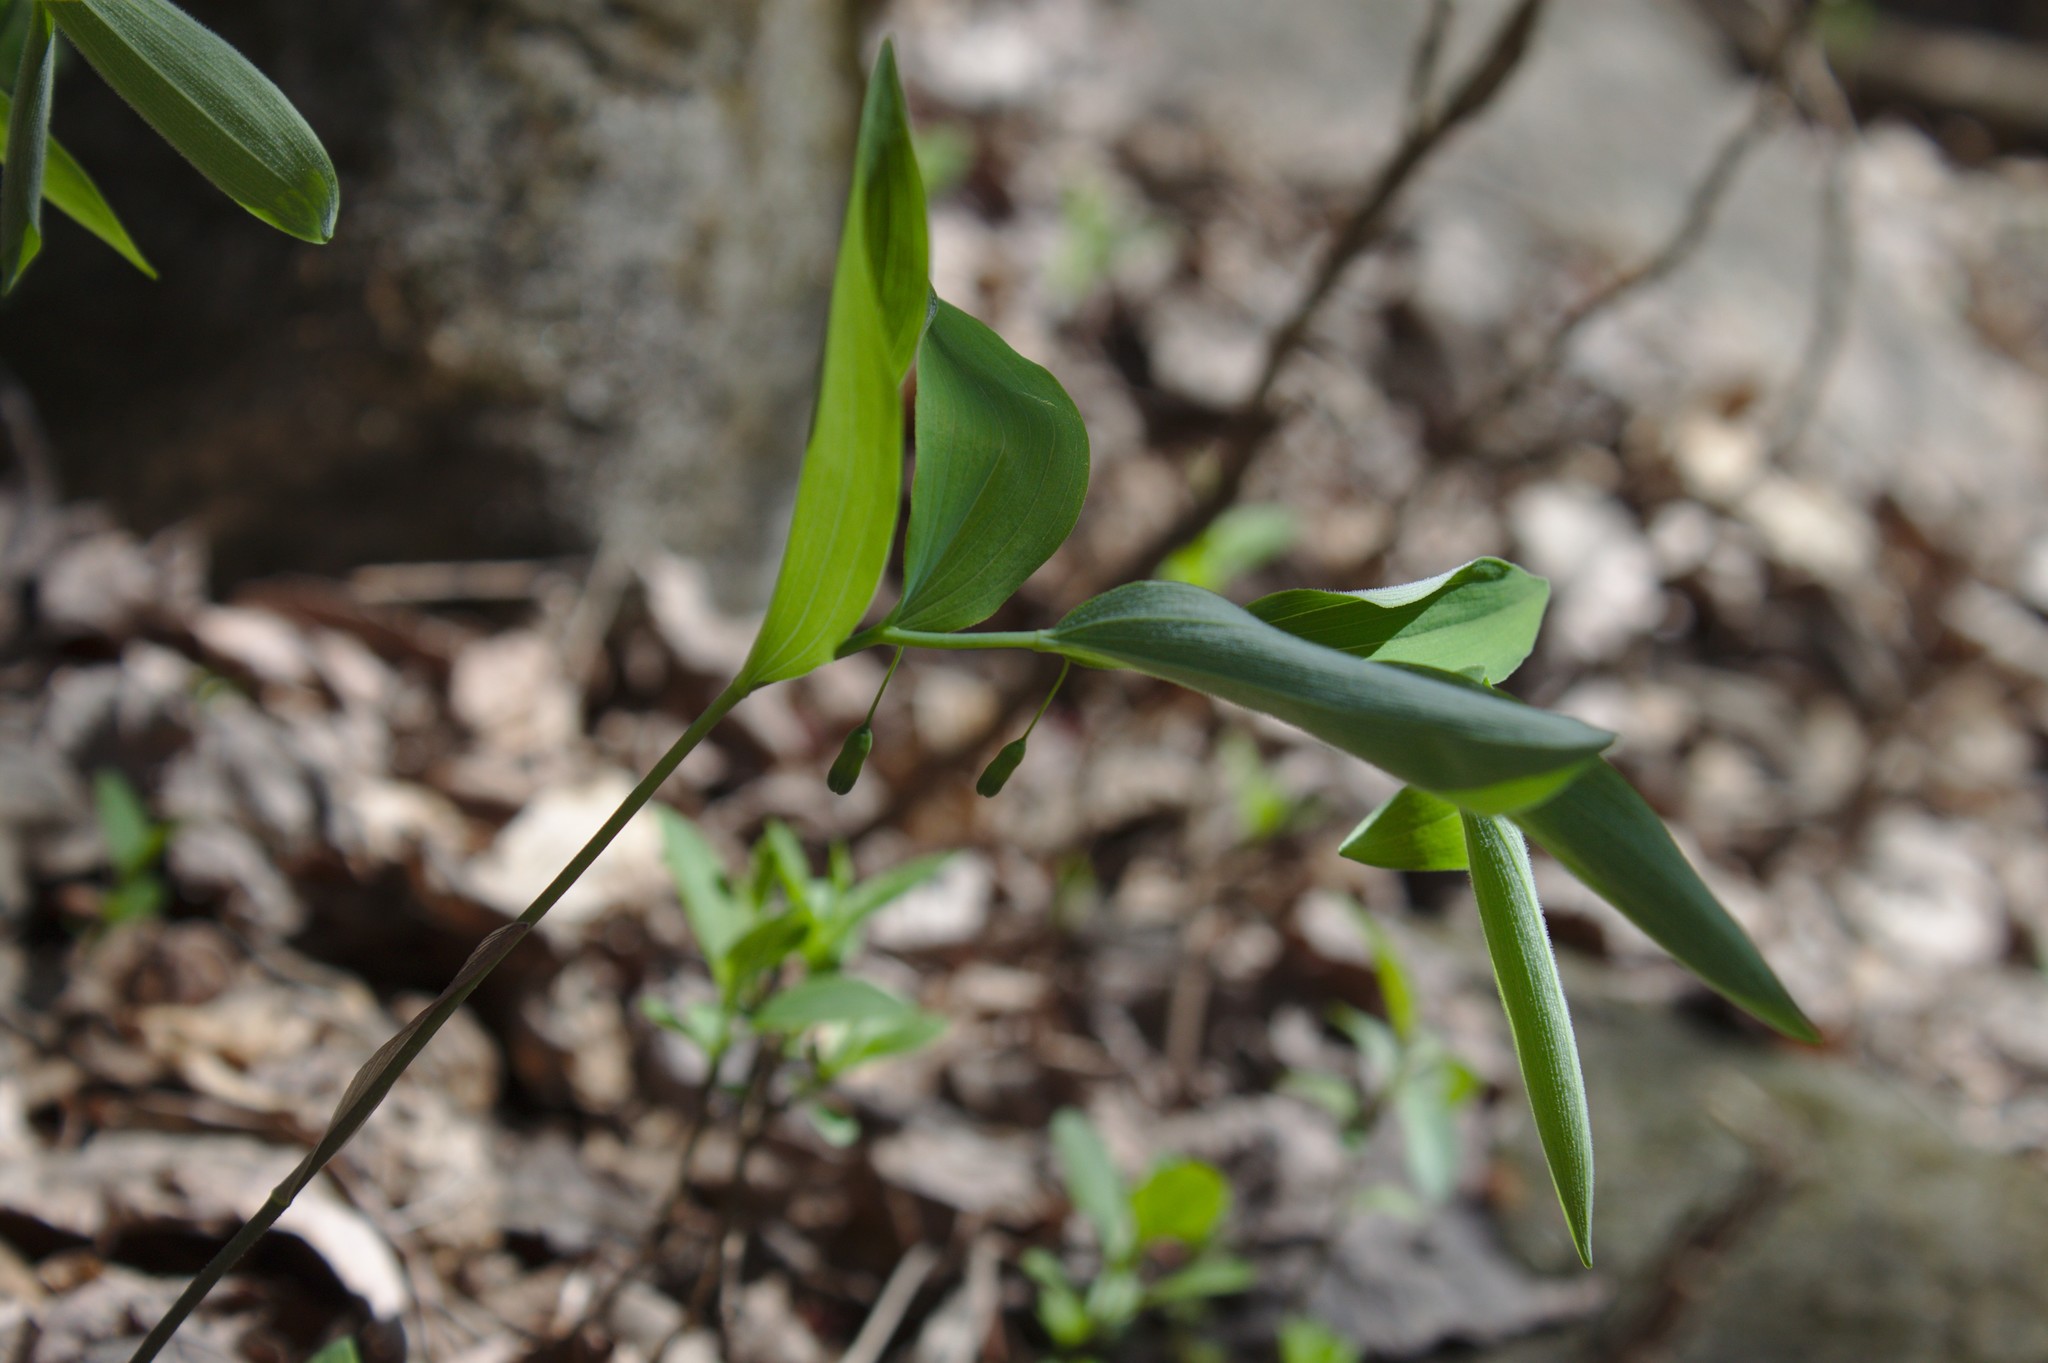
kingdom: Plantae
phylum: Tracheophyta
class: Liliopsida
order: Asparagales
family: Asparagaceae
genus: Polygonatum
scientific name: Polygonatum pubescens
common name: Downy solomon's seal
